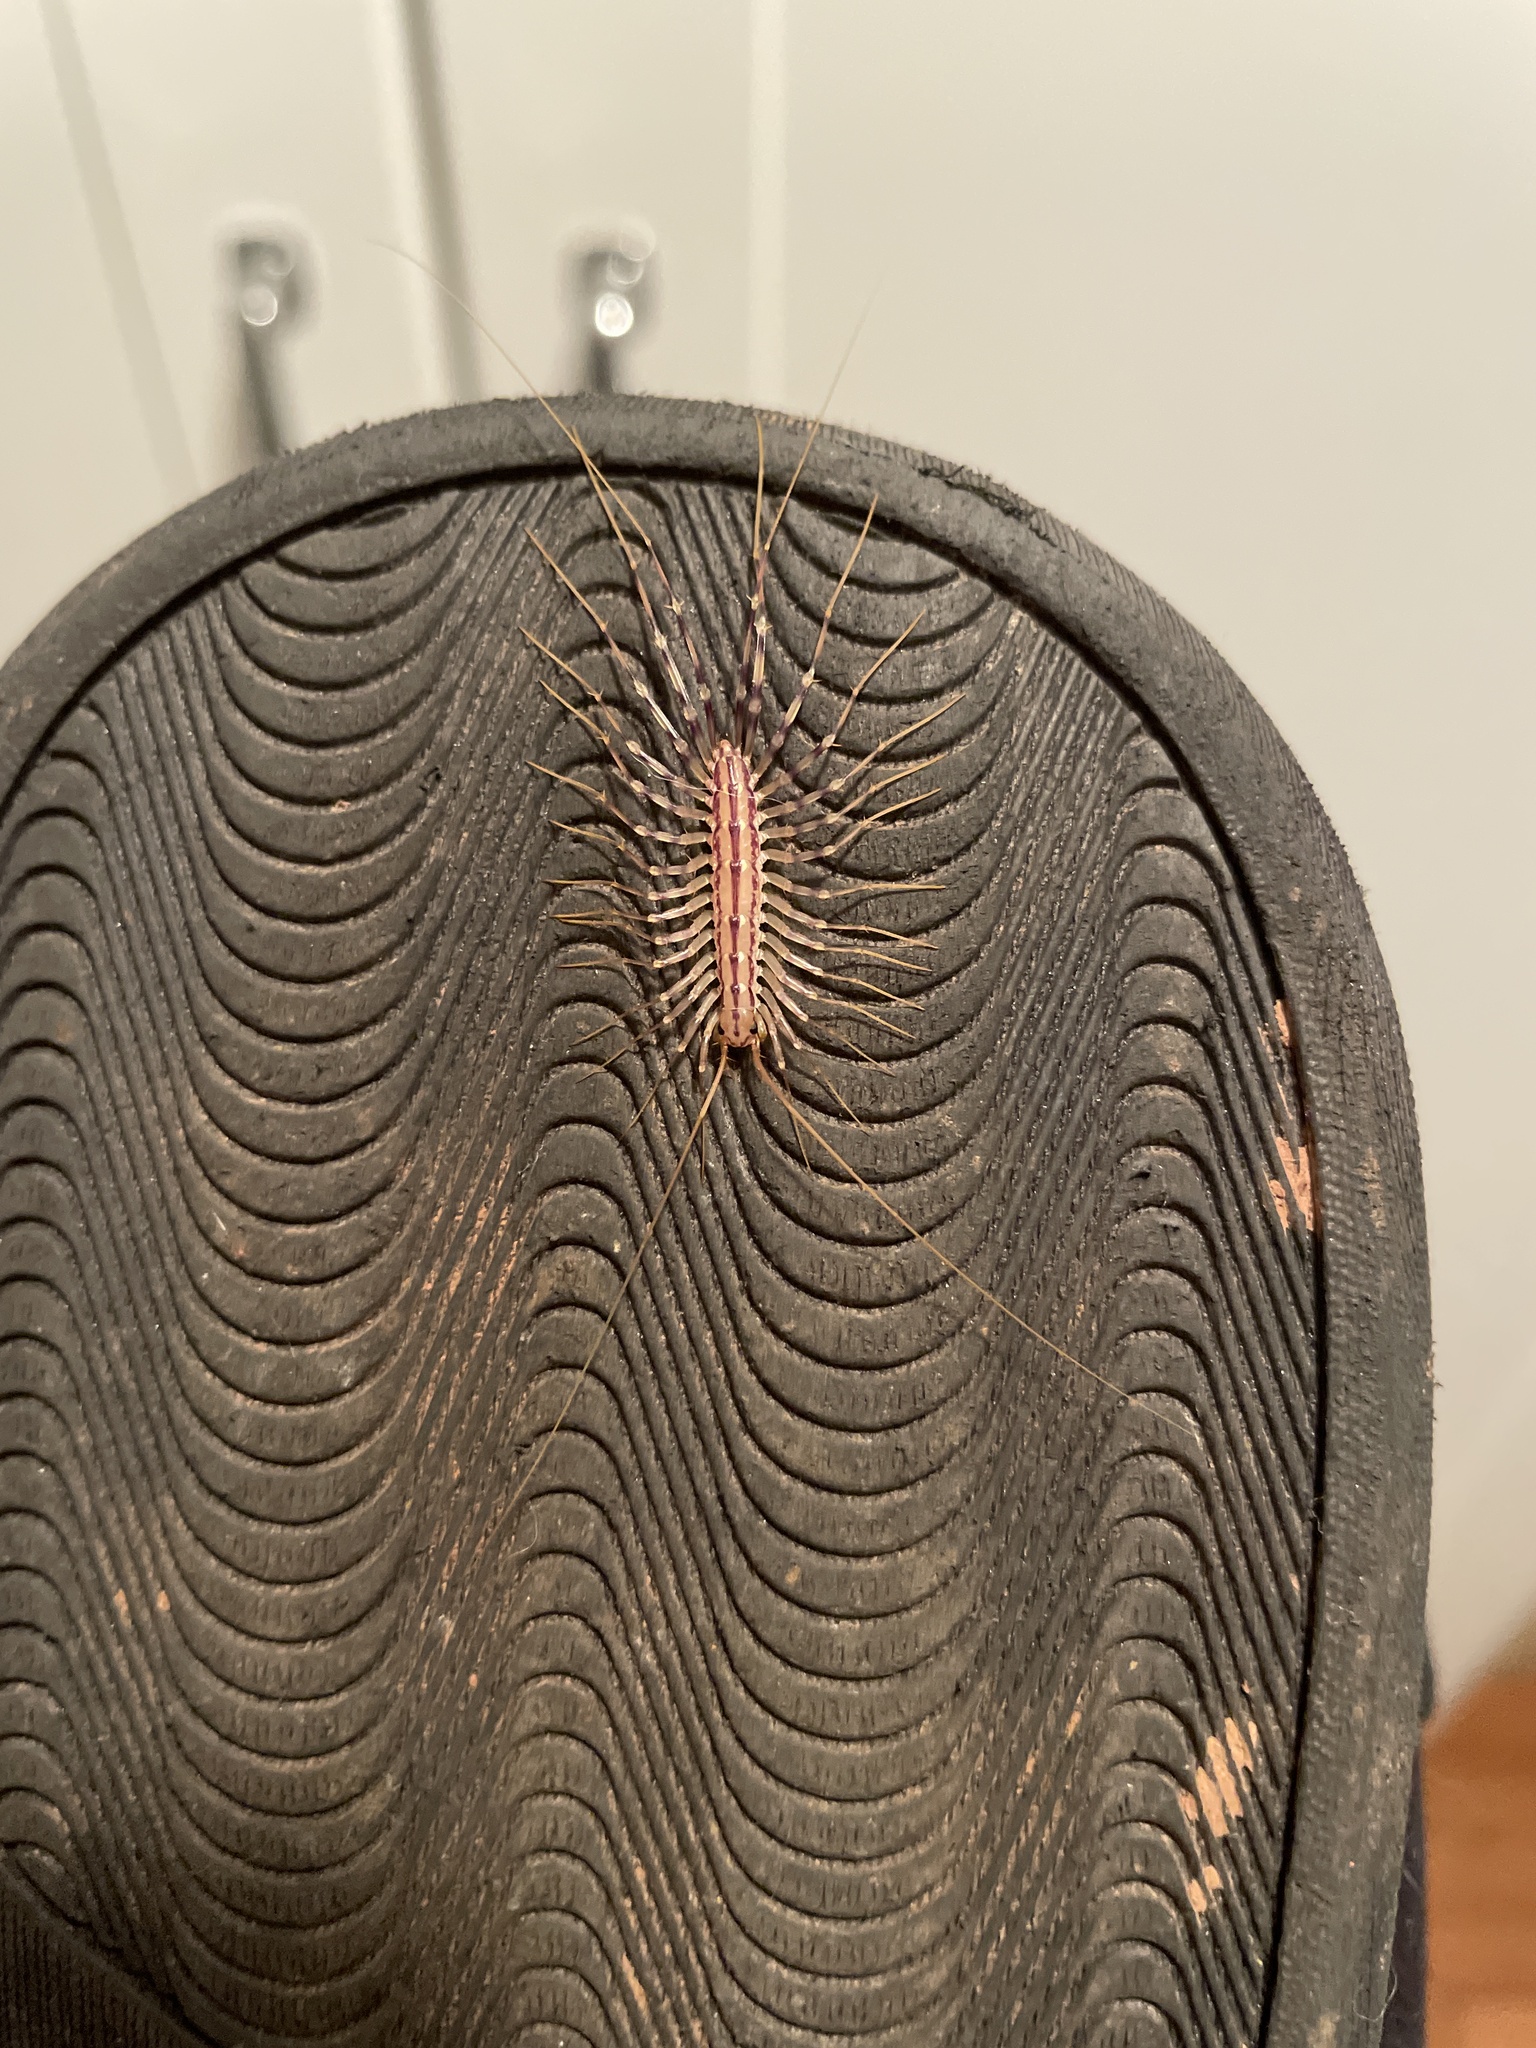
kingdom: Animalia
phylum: Arthropoda
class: Chilopoda
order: Scutigeromorpha
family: Scutigeridae
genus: Scutigera
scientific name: Scutigera coleoptrata
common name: House centipede
